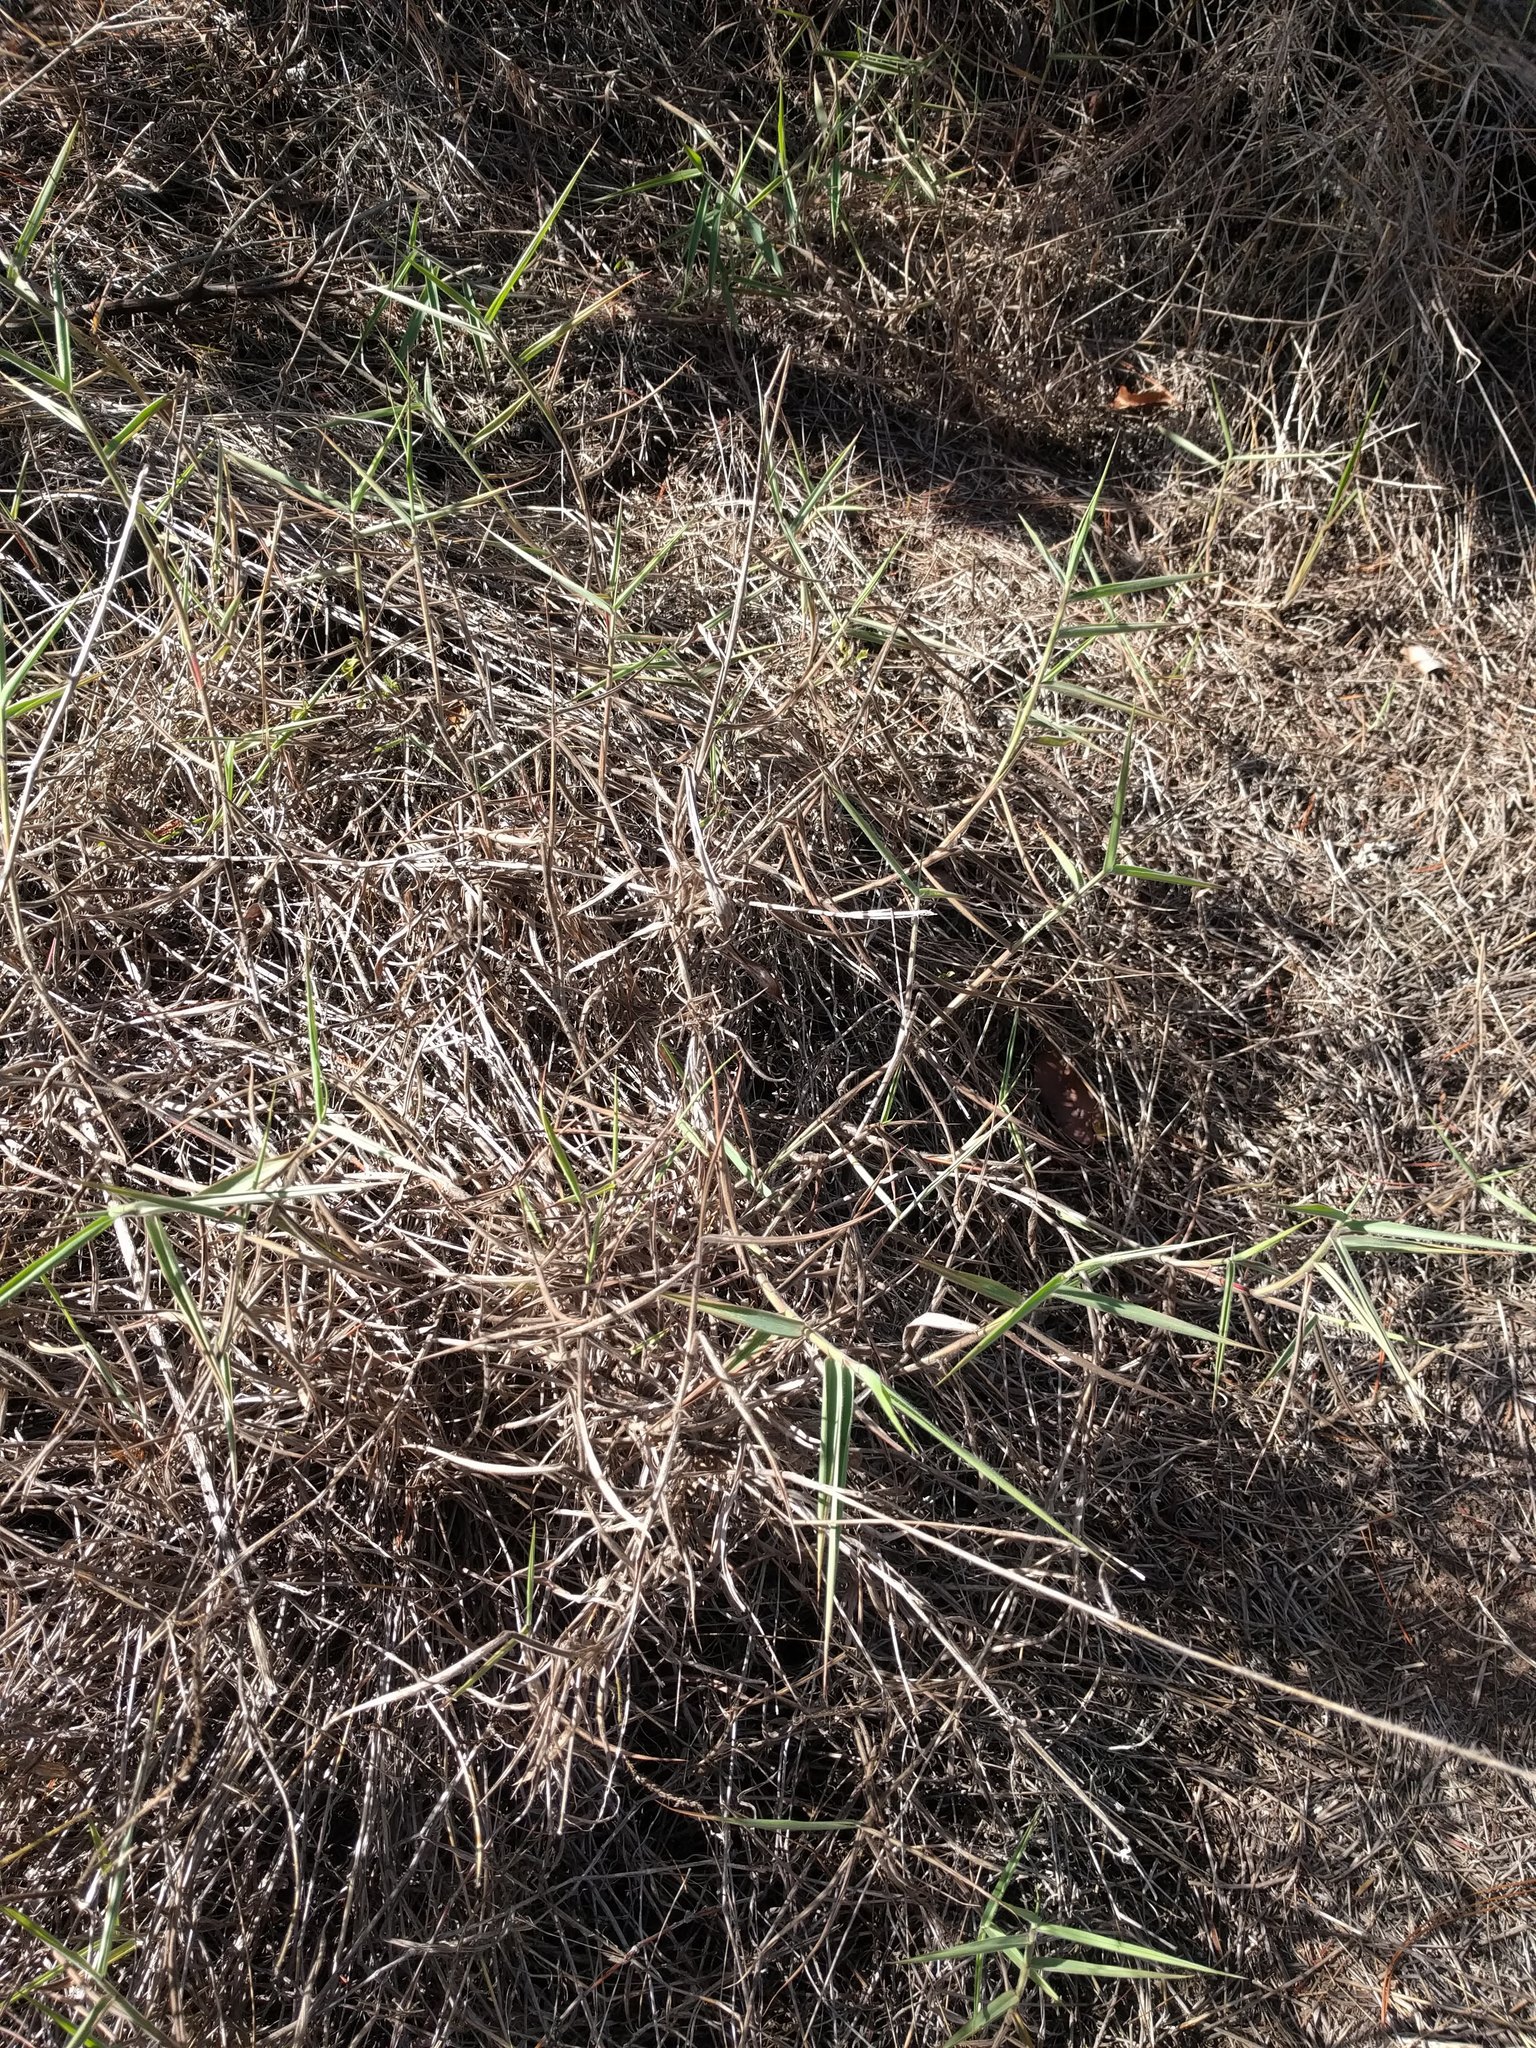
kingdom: Plantae
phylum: Tracheophyta
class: Liliopsida
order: Poales
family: Poaceae
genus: Melinis
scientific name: Melinis minutiflora
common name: Molassesgrass
